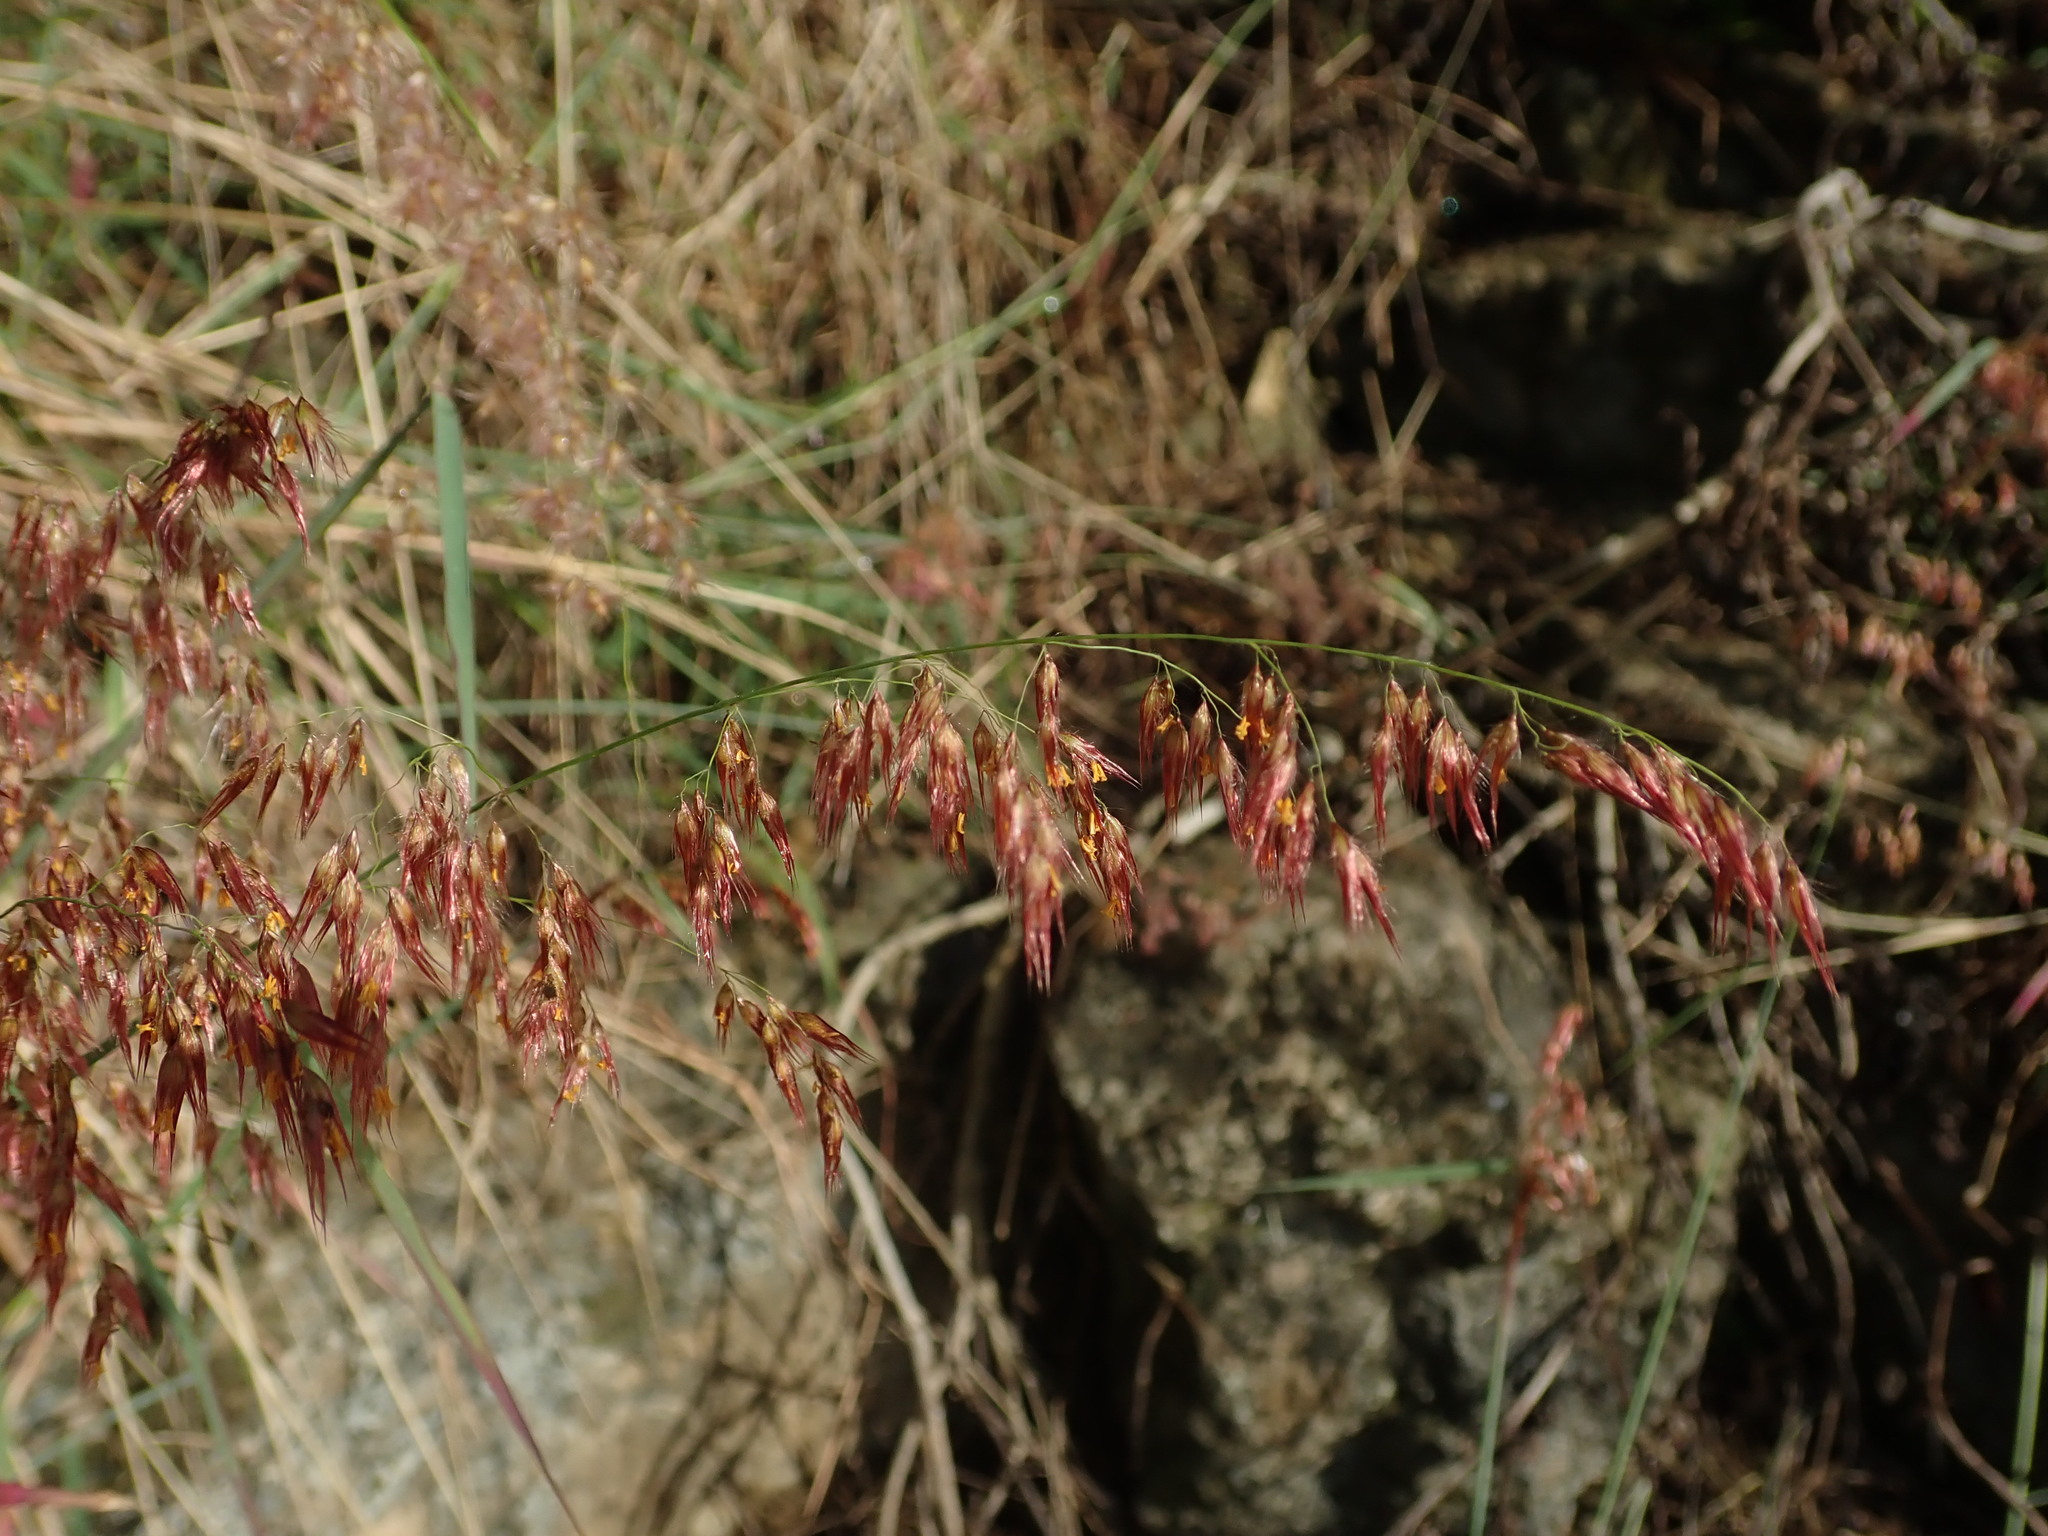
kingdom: Plantae
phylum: Tracheophyta
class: Liliopsida
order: Poales
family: Poaceae
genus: Melinis
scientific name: Melinis repens
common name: Rose natal grass
